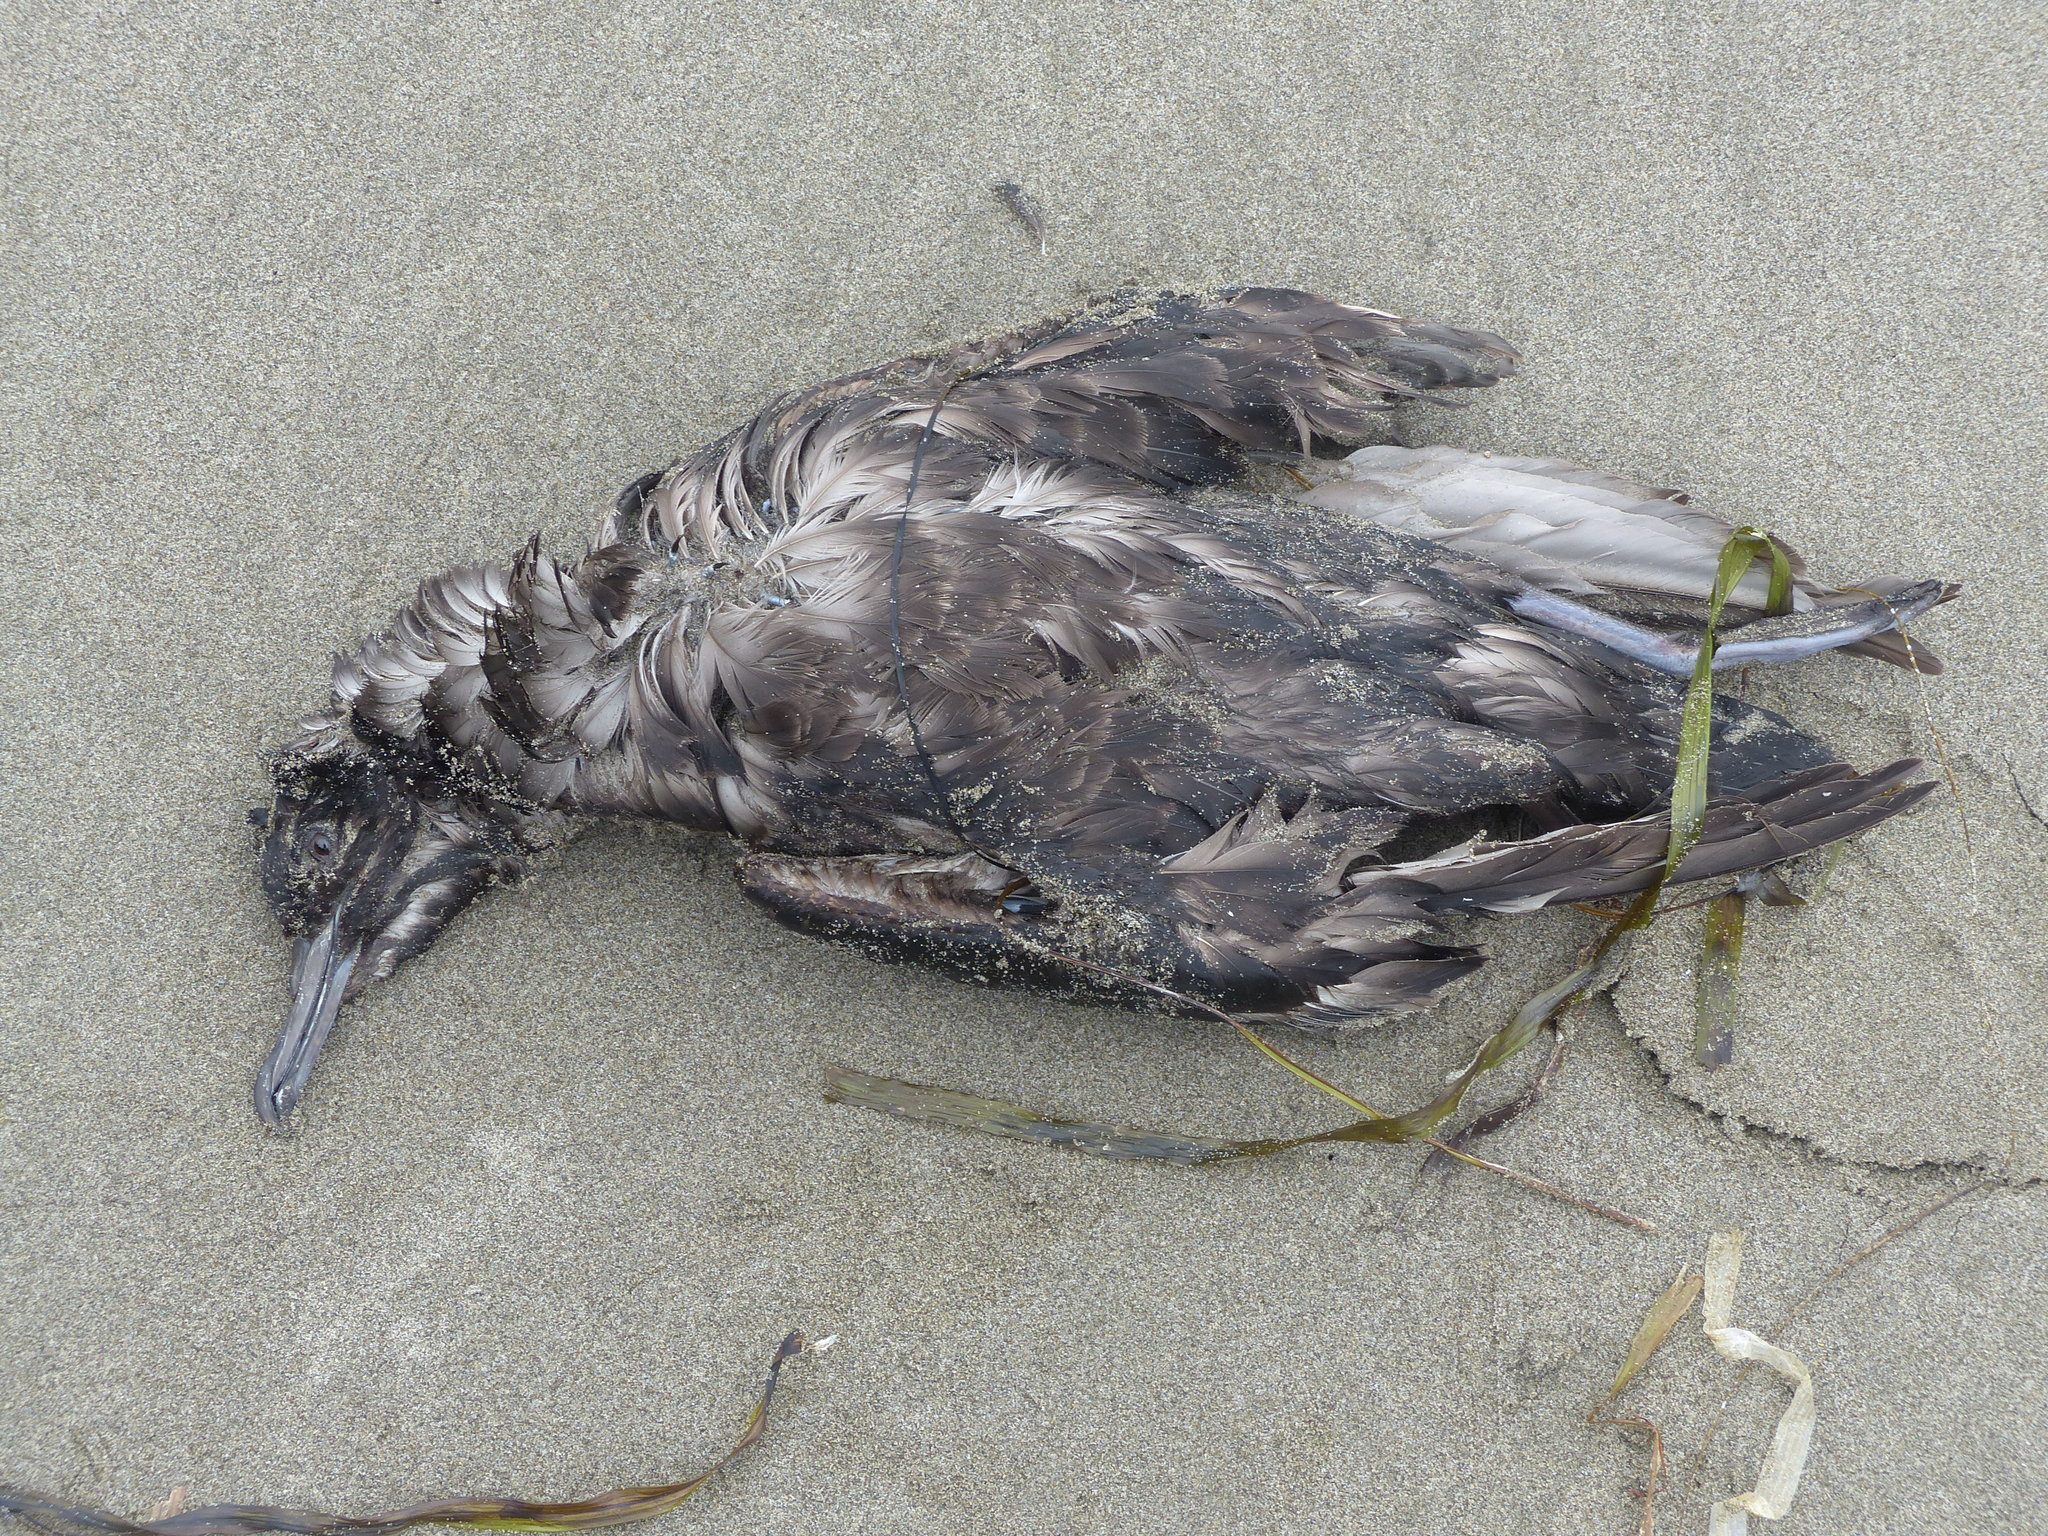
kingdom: Animalia
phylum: Chordata
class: Aves
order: Procellariiformes
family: Procellariidae
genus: Ardenna
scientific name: Ardenna
